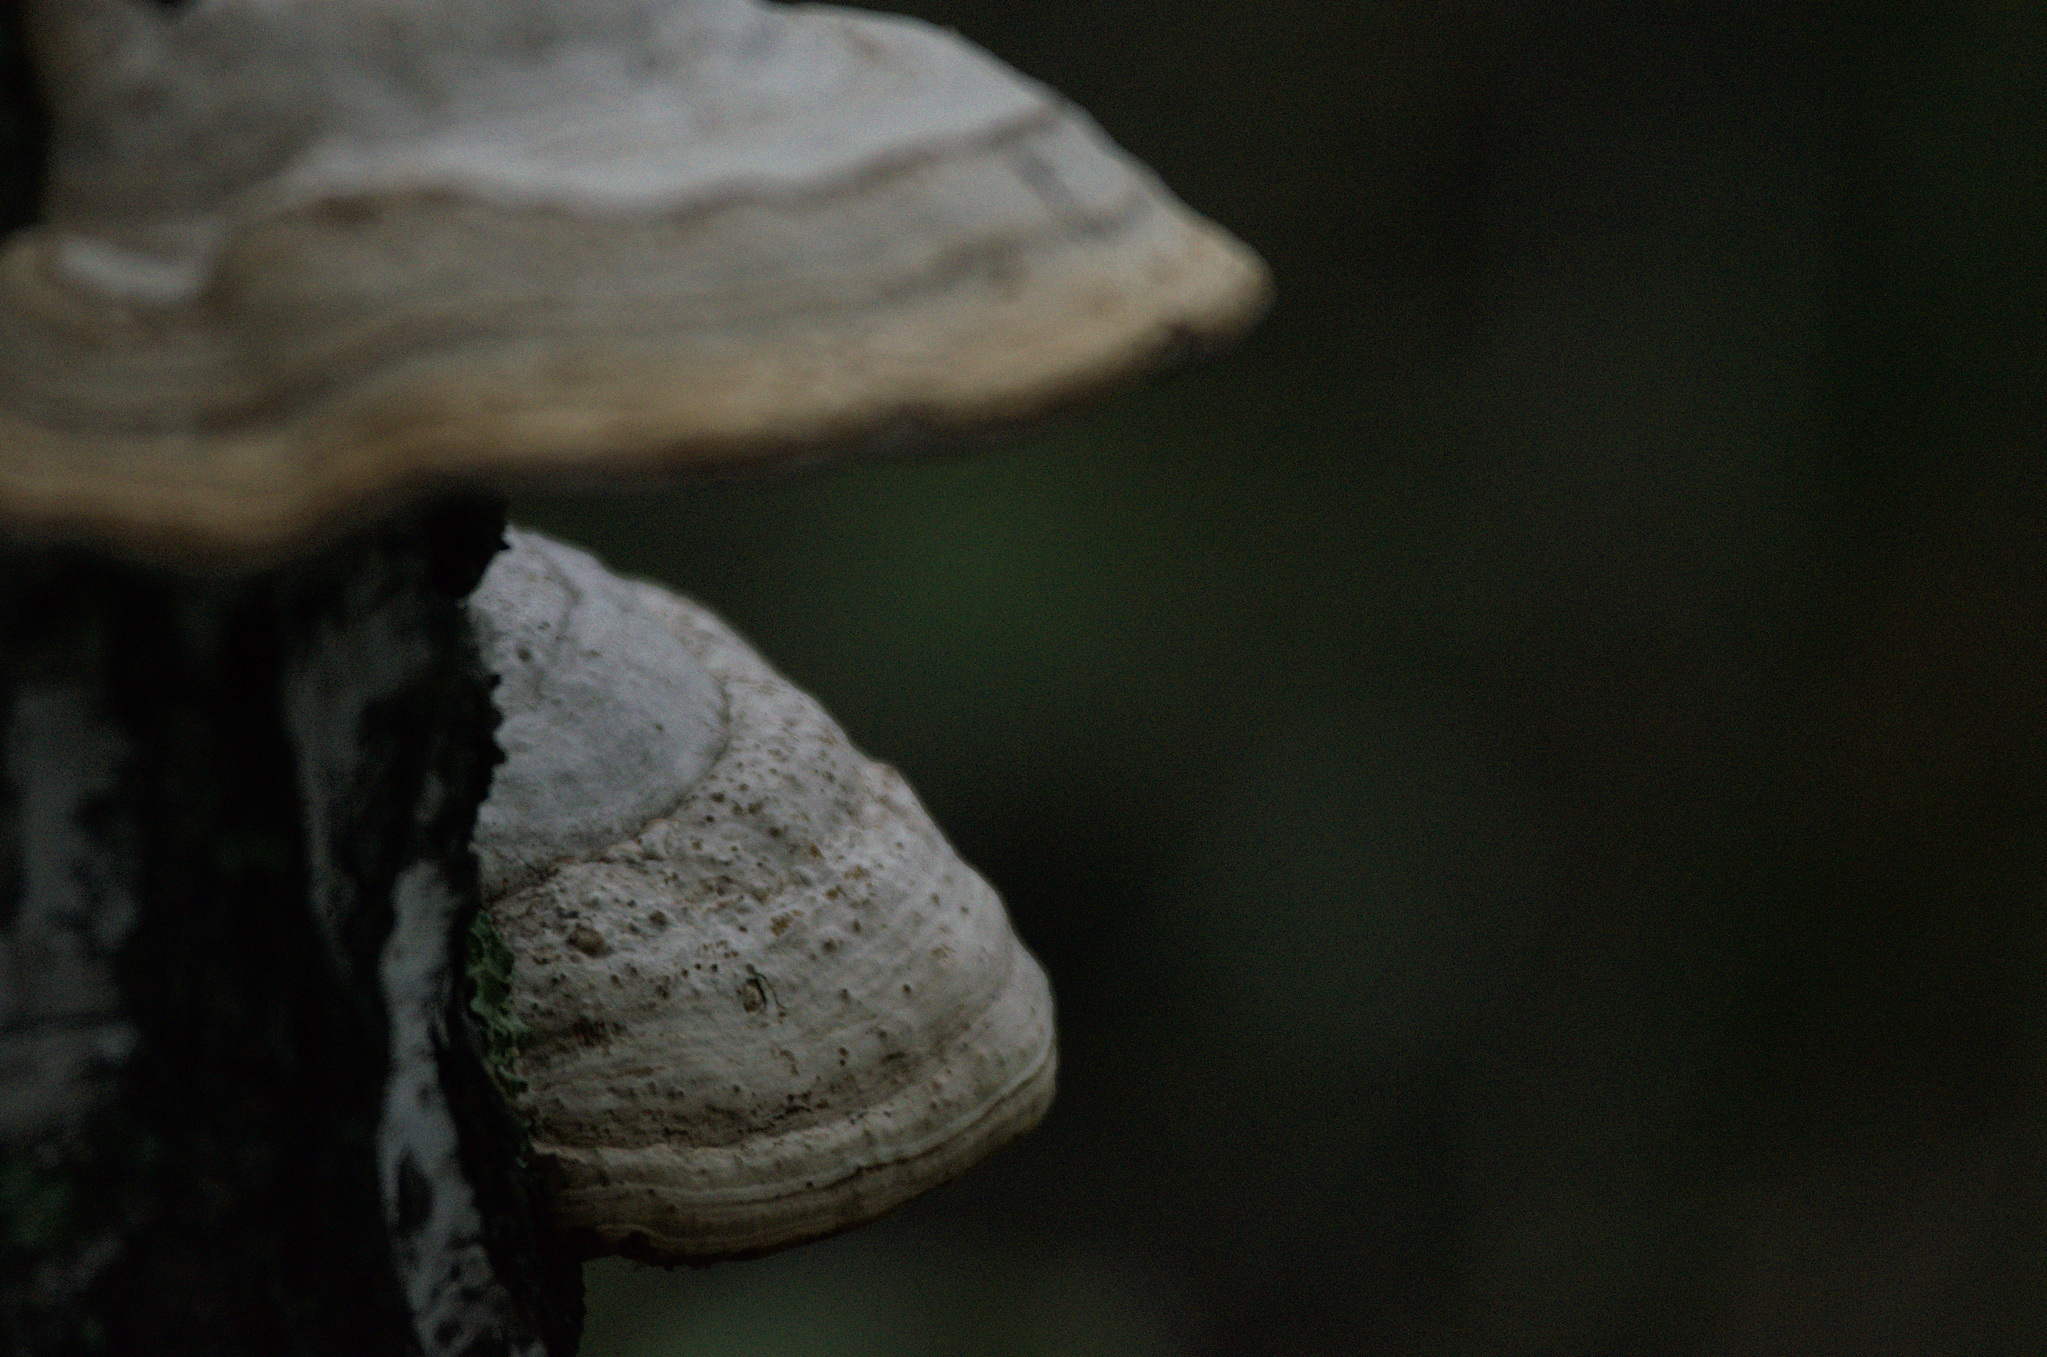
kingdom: Fungi
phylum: Basidiomycota
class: Agaricomycetes
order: Polyporales
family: Polyporaceae
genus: Fomes
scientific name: Fomes fomentarius
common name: Hoof fungus
